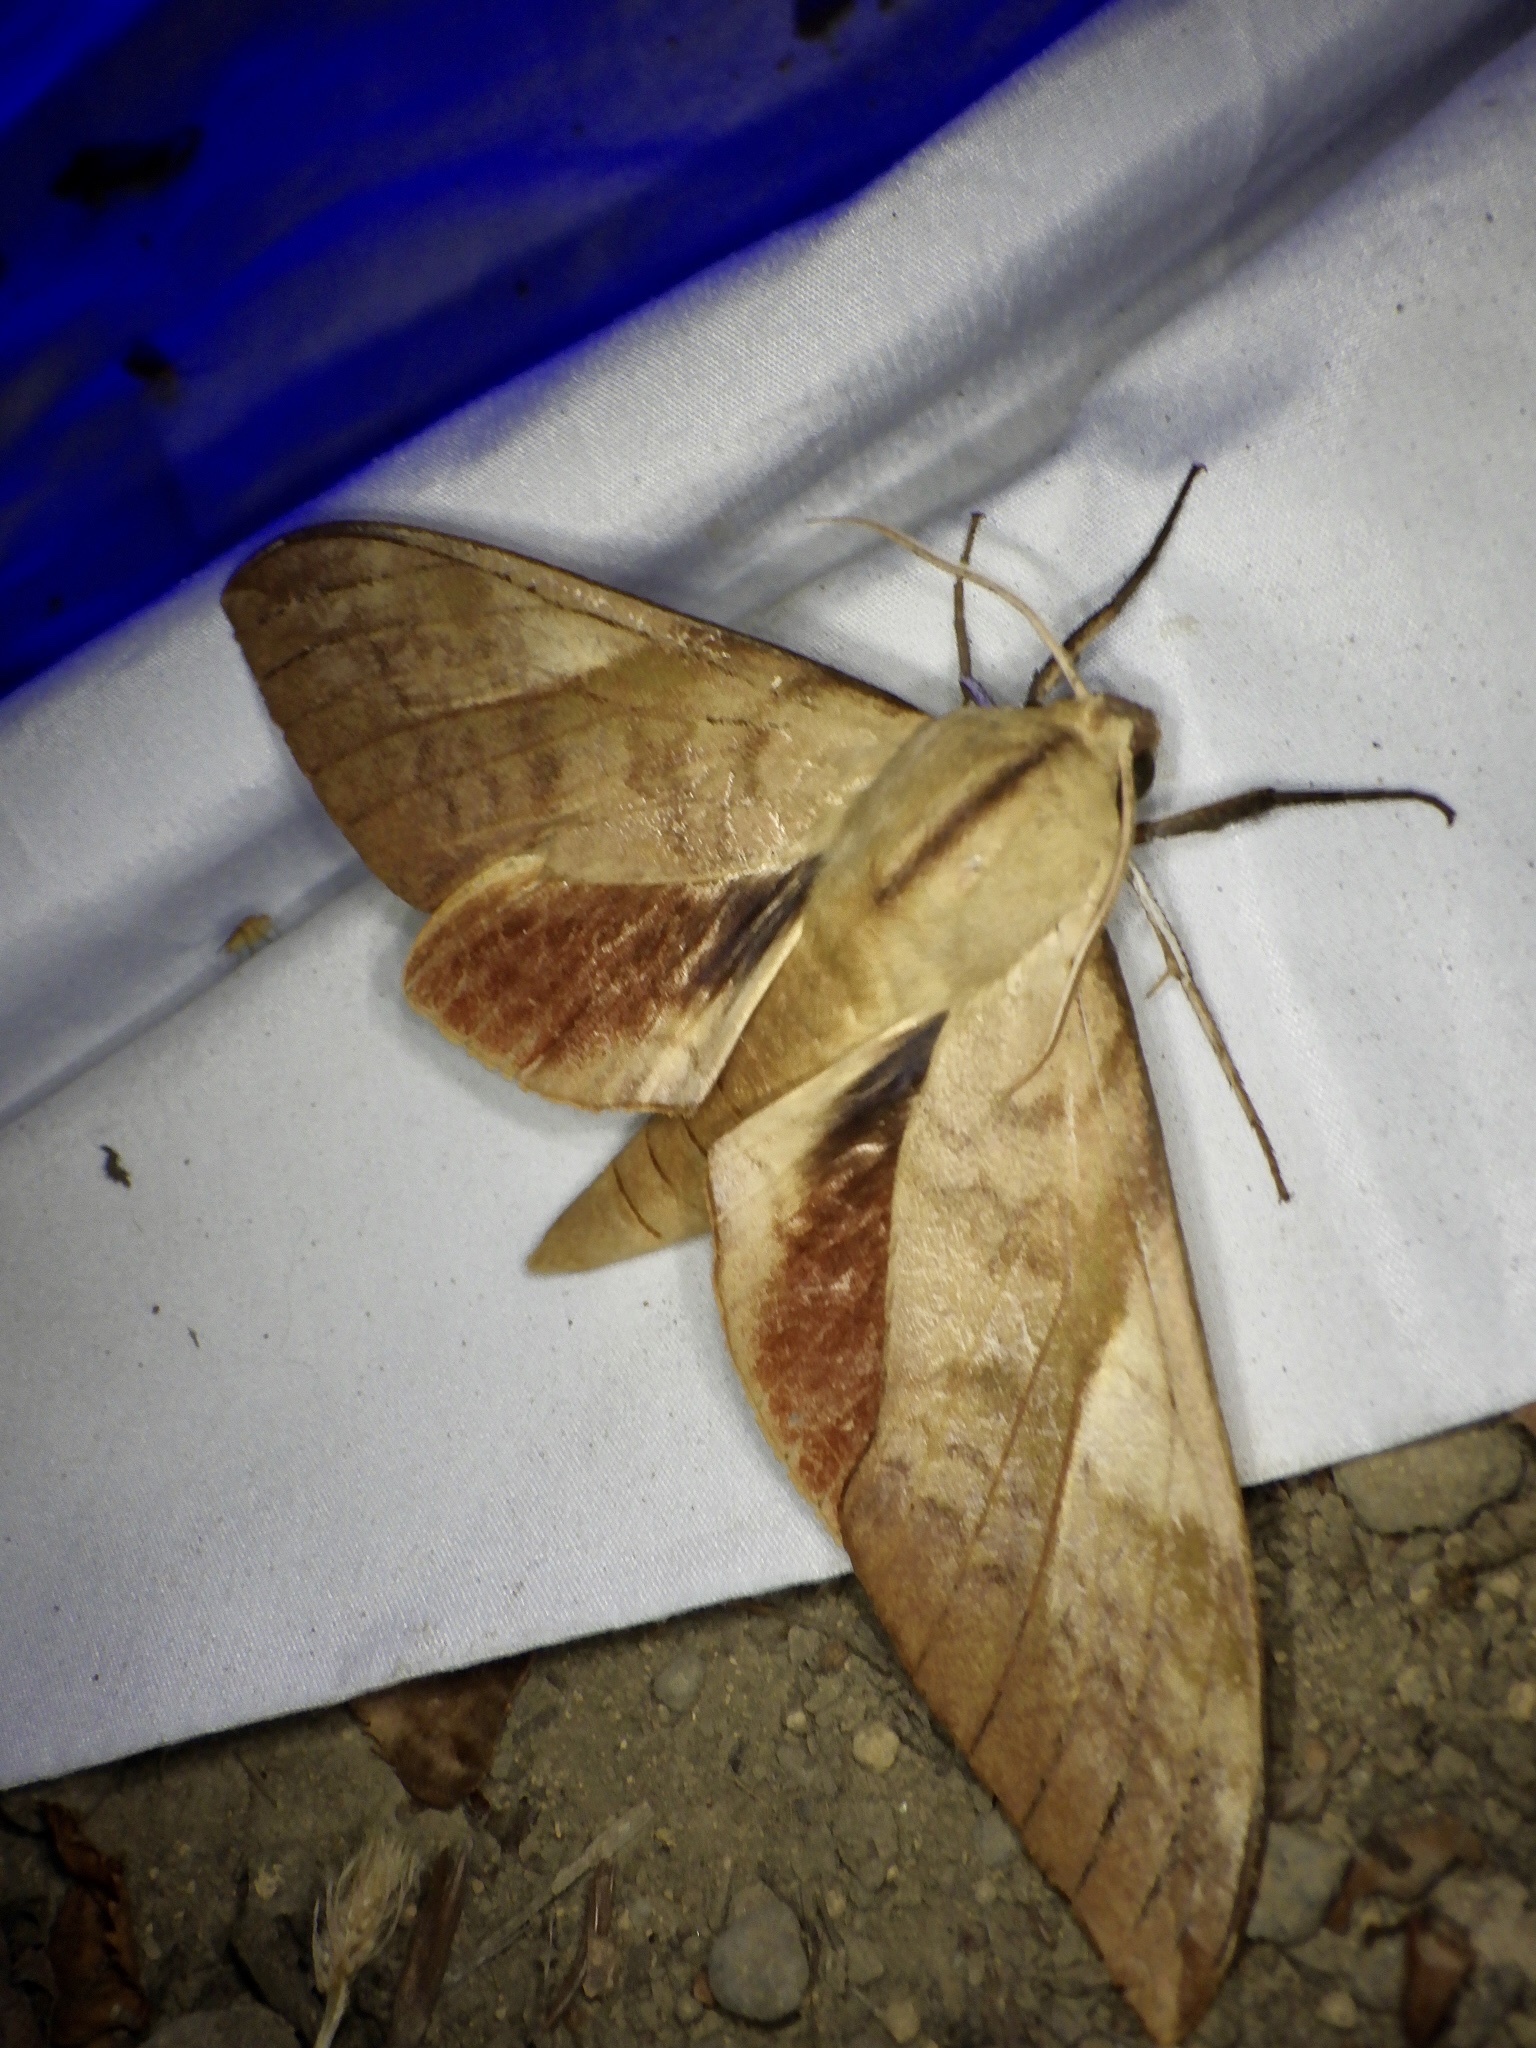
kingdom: Animalia
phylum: Arthropoda
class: Insecta
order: Lepidoptera
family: Sphingidae
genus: Clanis
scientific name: Clanis bilineata
